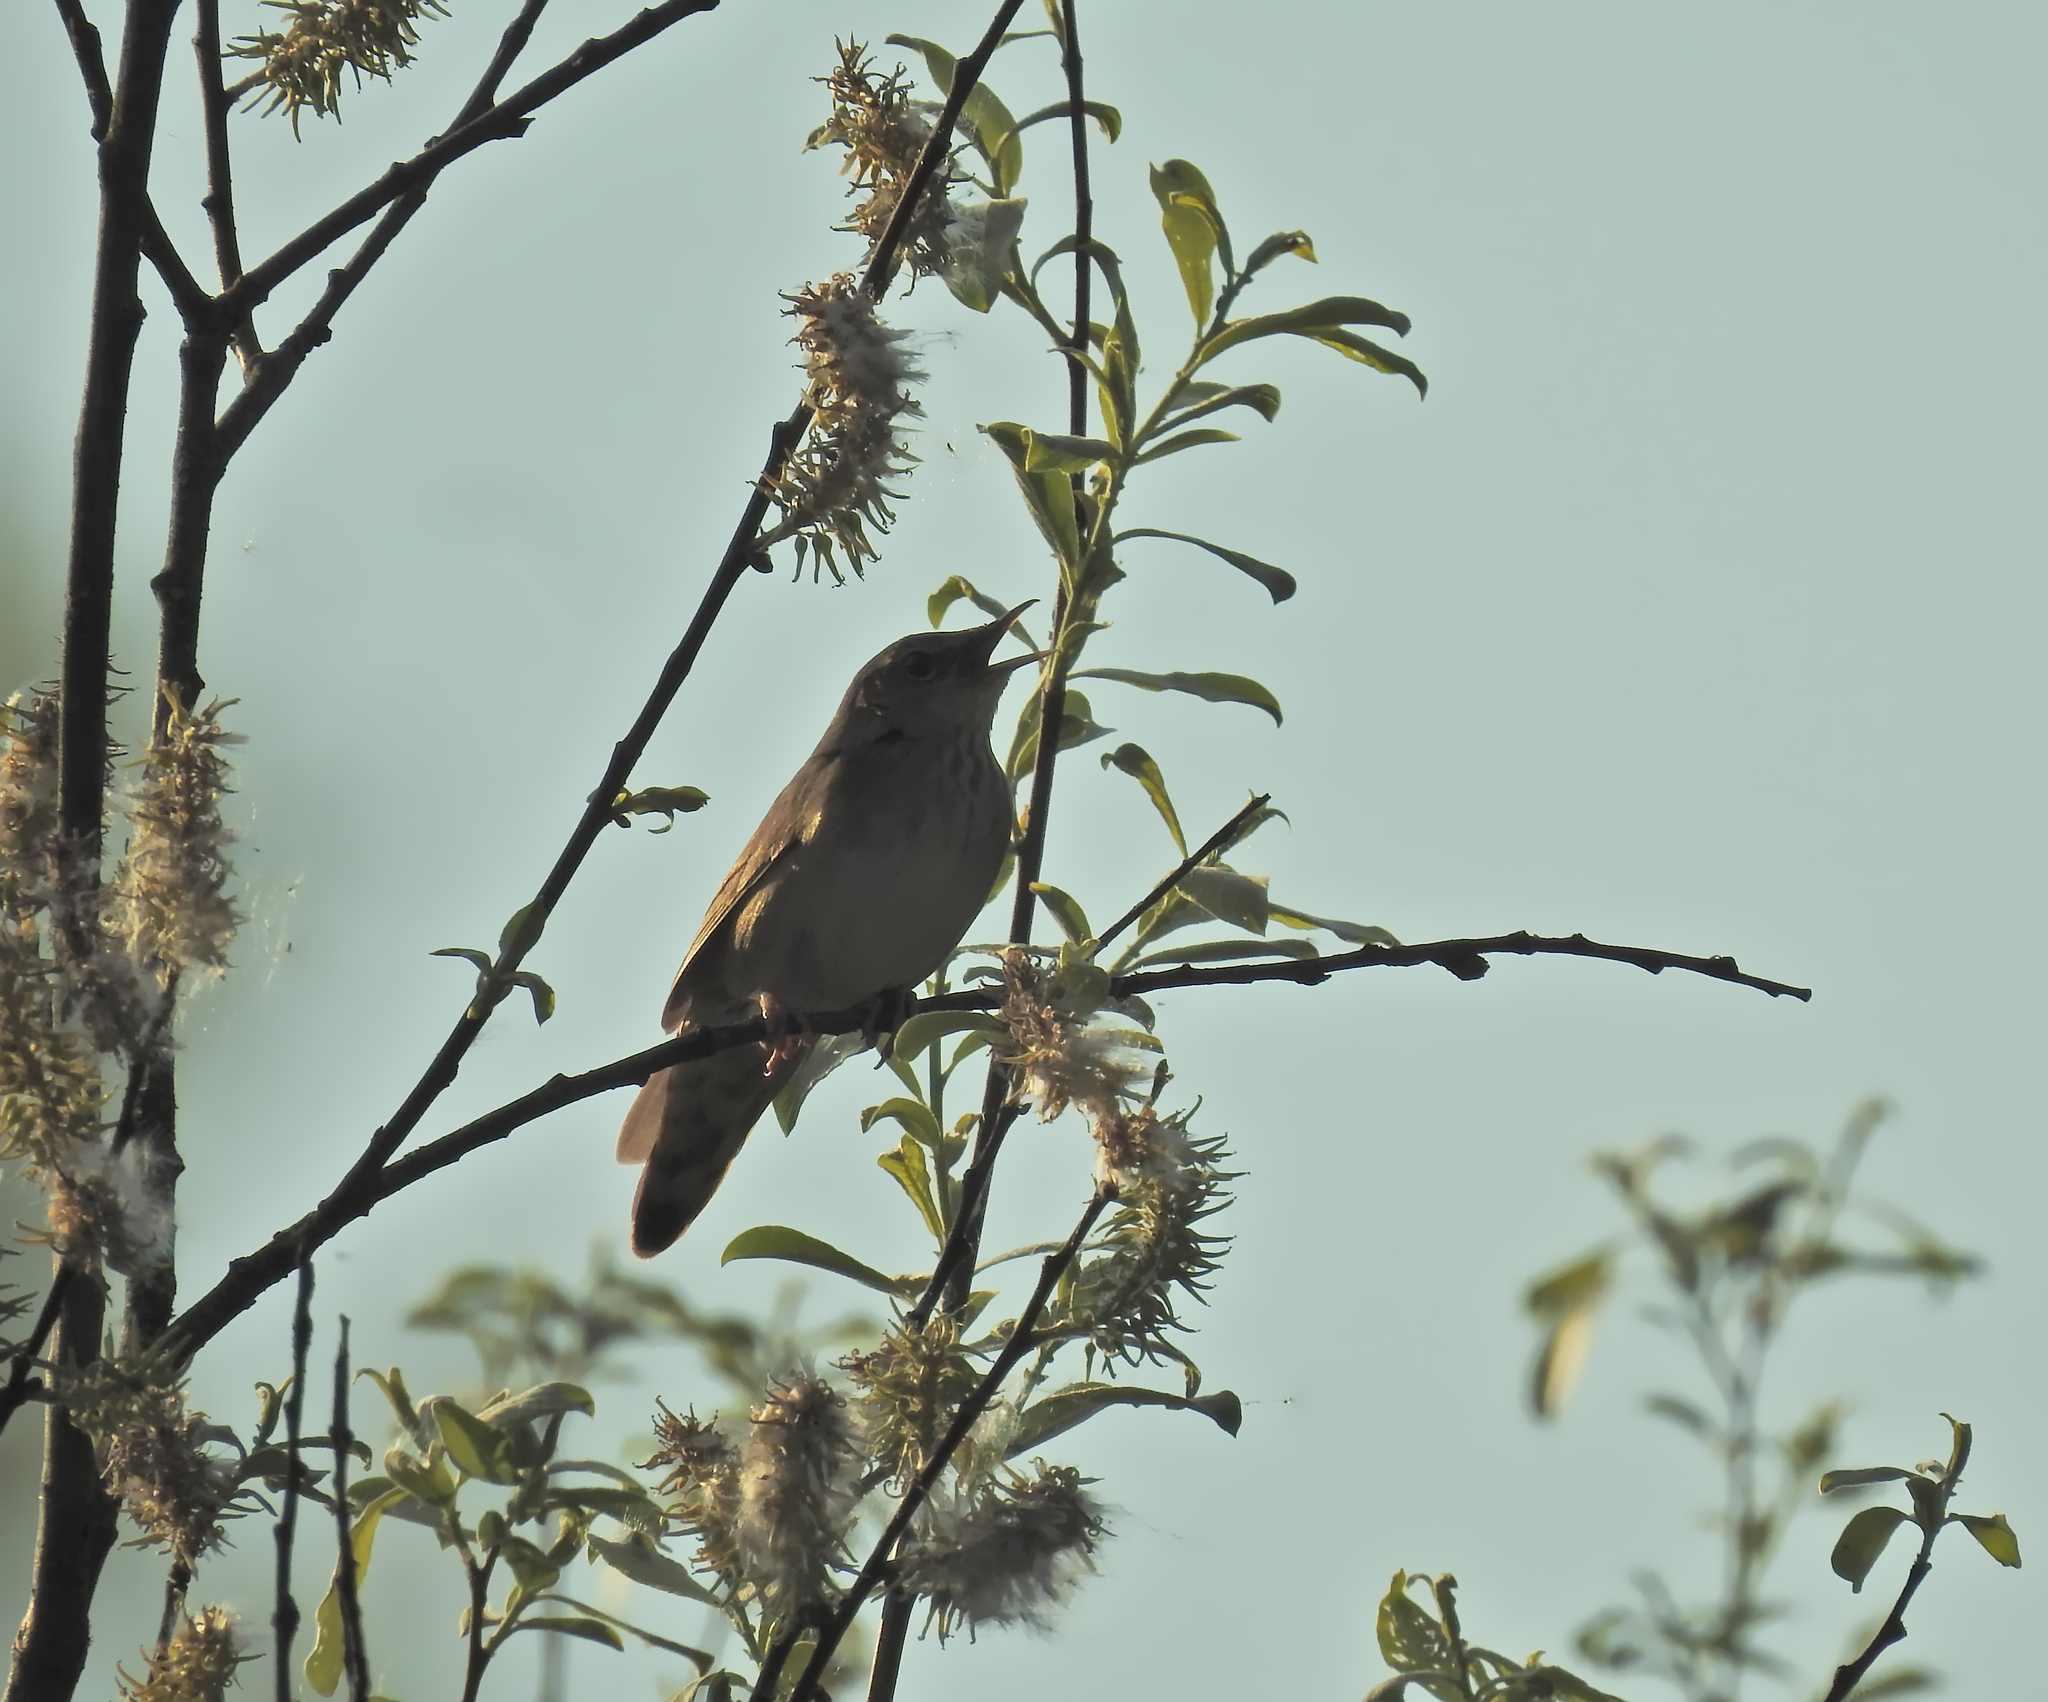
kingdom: Animalia
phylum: Chordata
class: Aves
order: Passeriformes
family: Locustellidae
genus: Locustella
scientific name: Locustella fluviatilis
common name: River warbler
